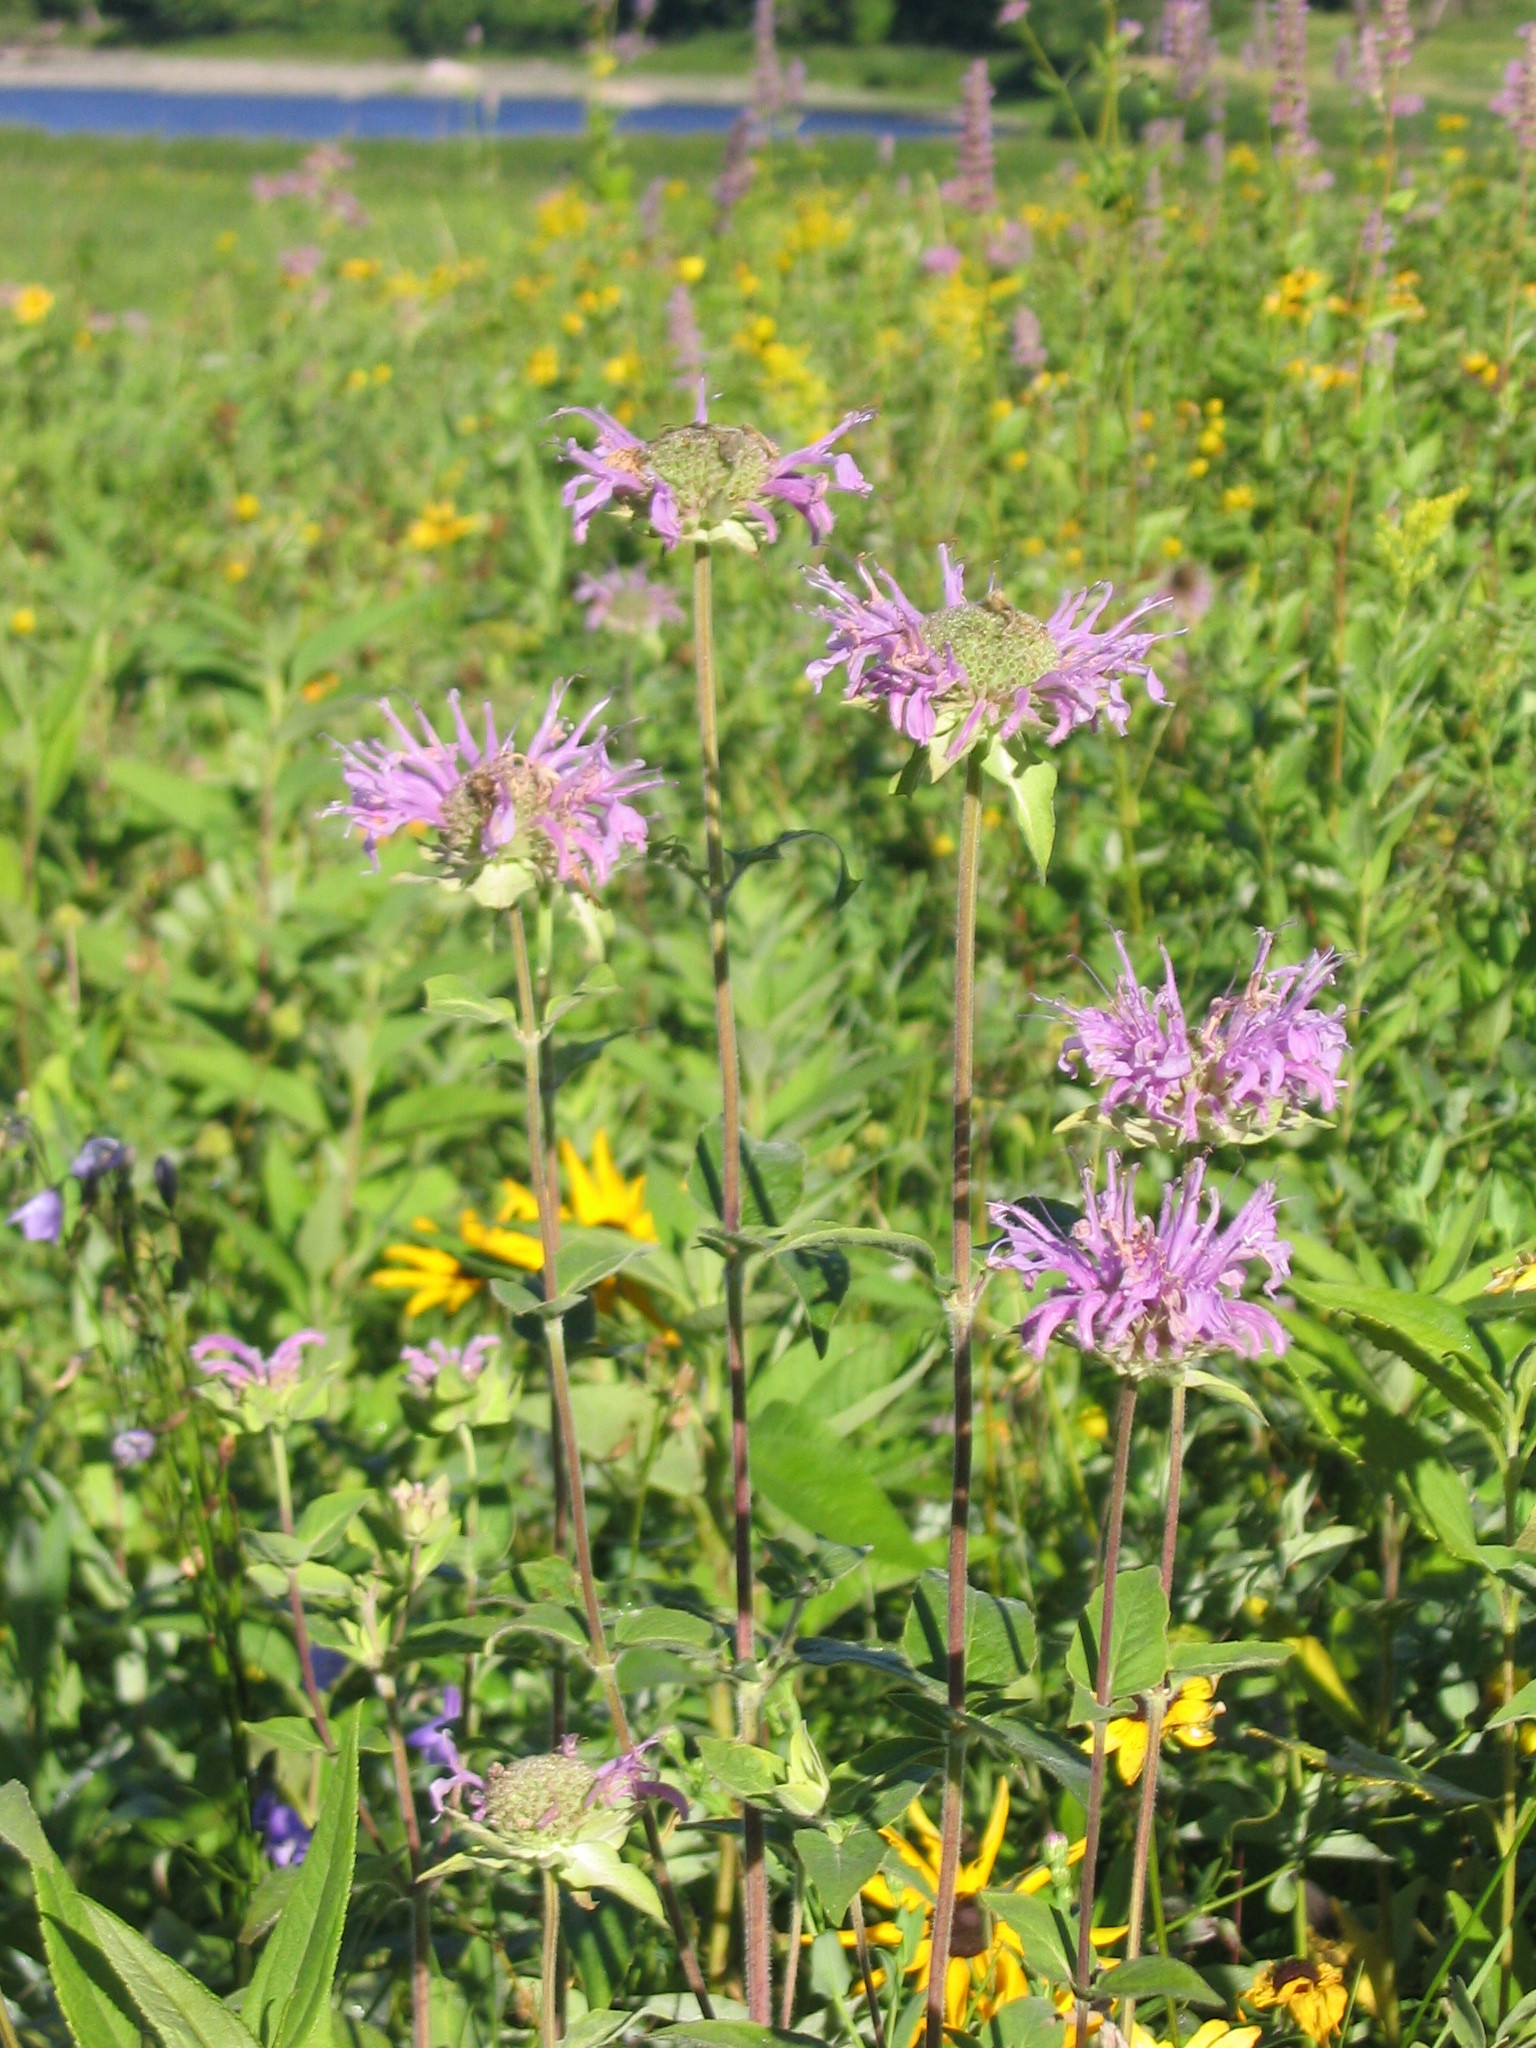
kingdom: Plantae
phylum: Tracheophyta
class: Magnoliopsida
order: Lamiales
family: Lamiaceae
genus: Monarda
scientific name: Monarda fistulosa
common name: Purple beebalm
